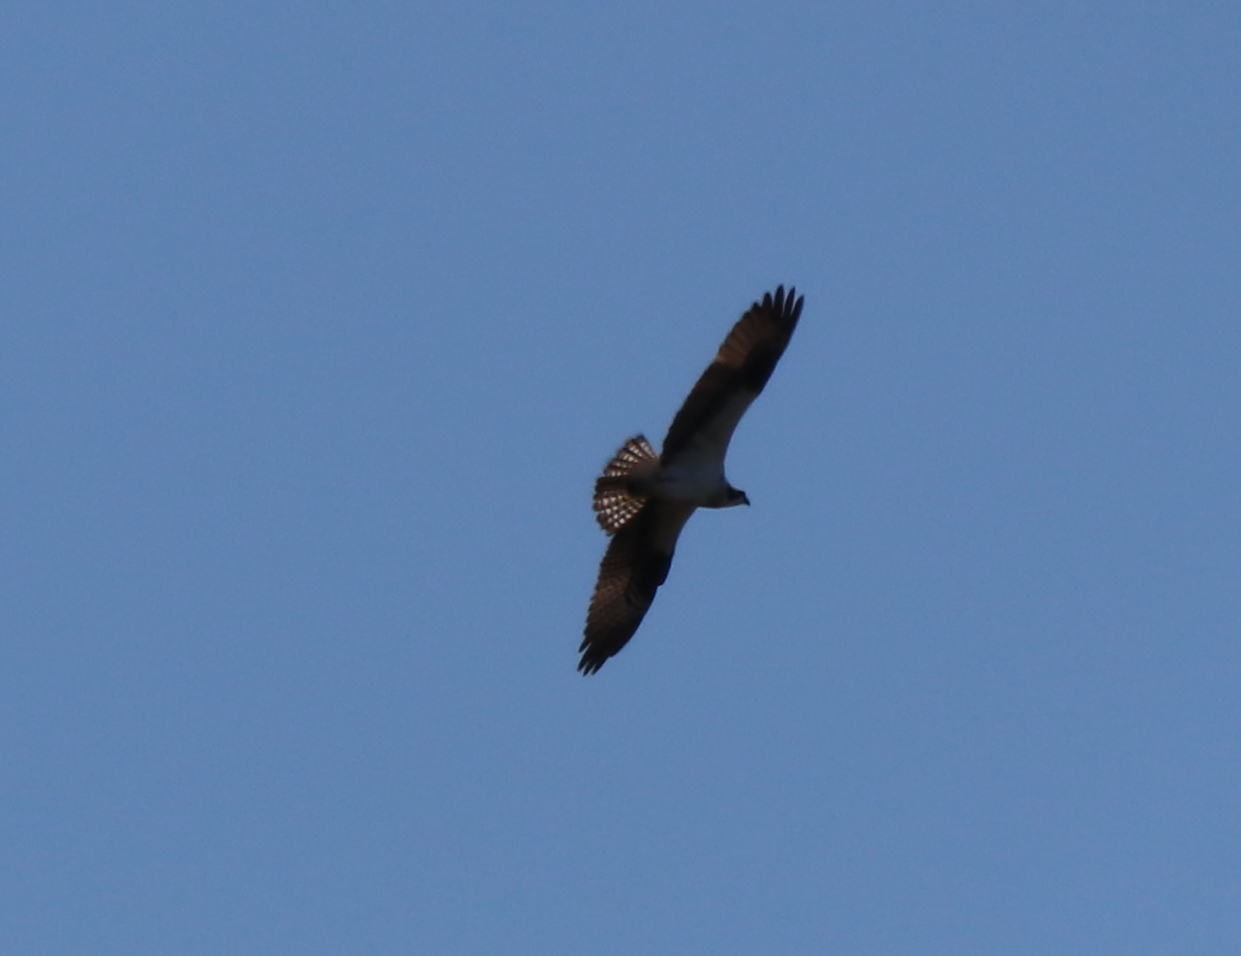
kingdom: Animalia
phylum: Chordata
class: Aves
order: Accipitriformes
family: Pandionidae
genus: Pandion
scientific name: Pandion haliaetus
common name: Osprey
